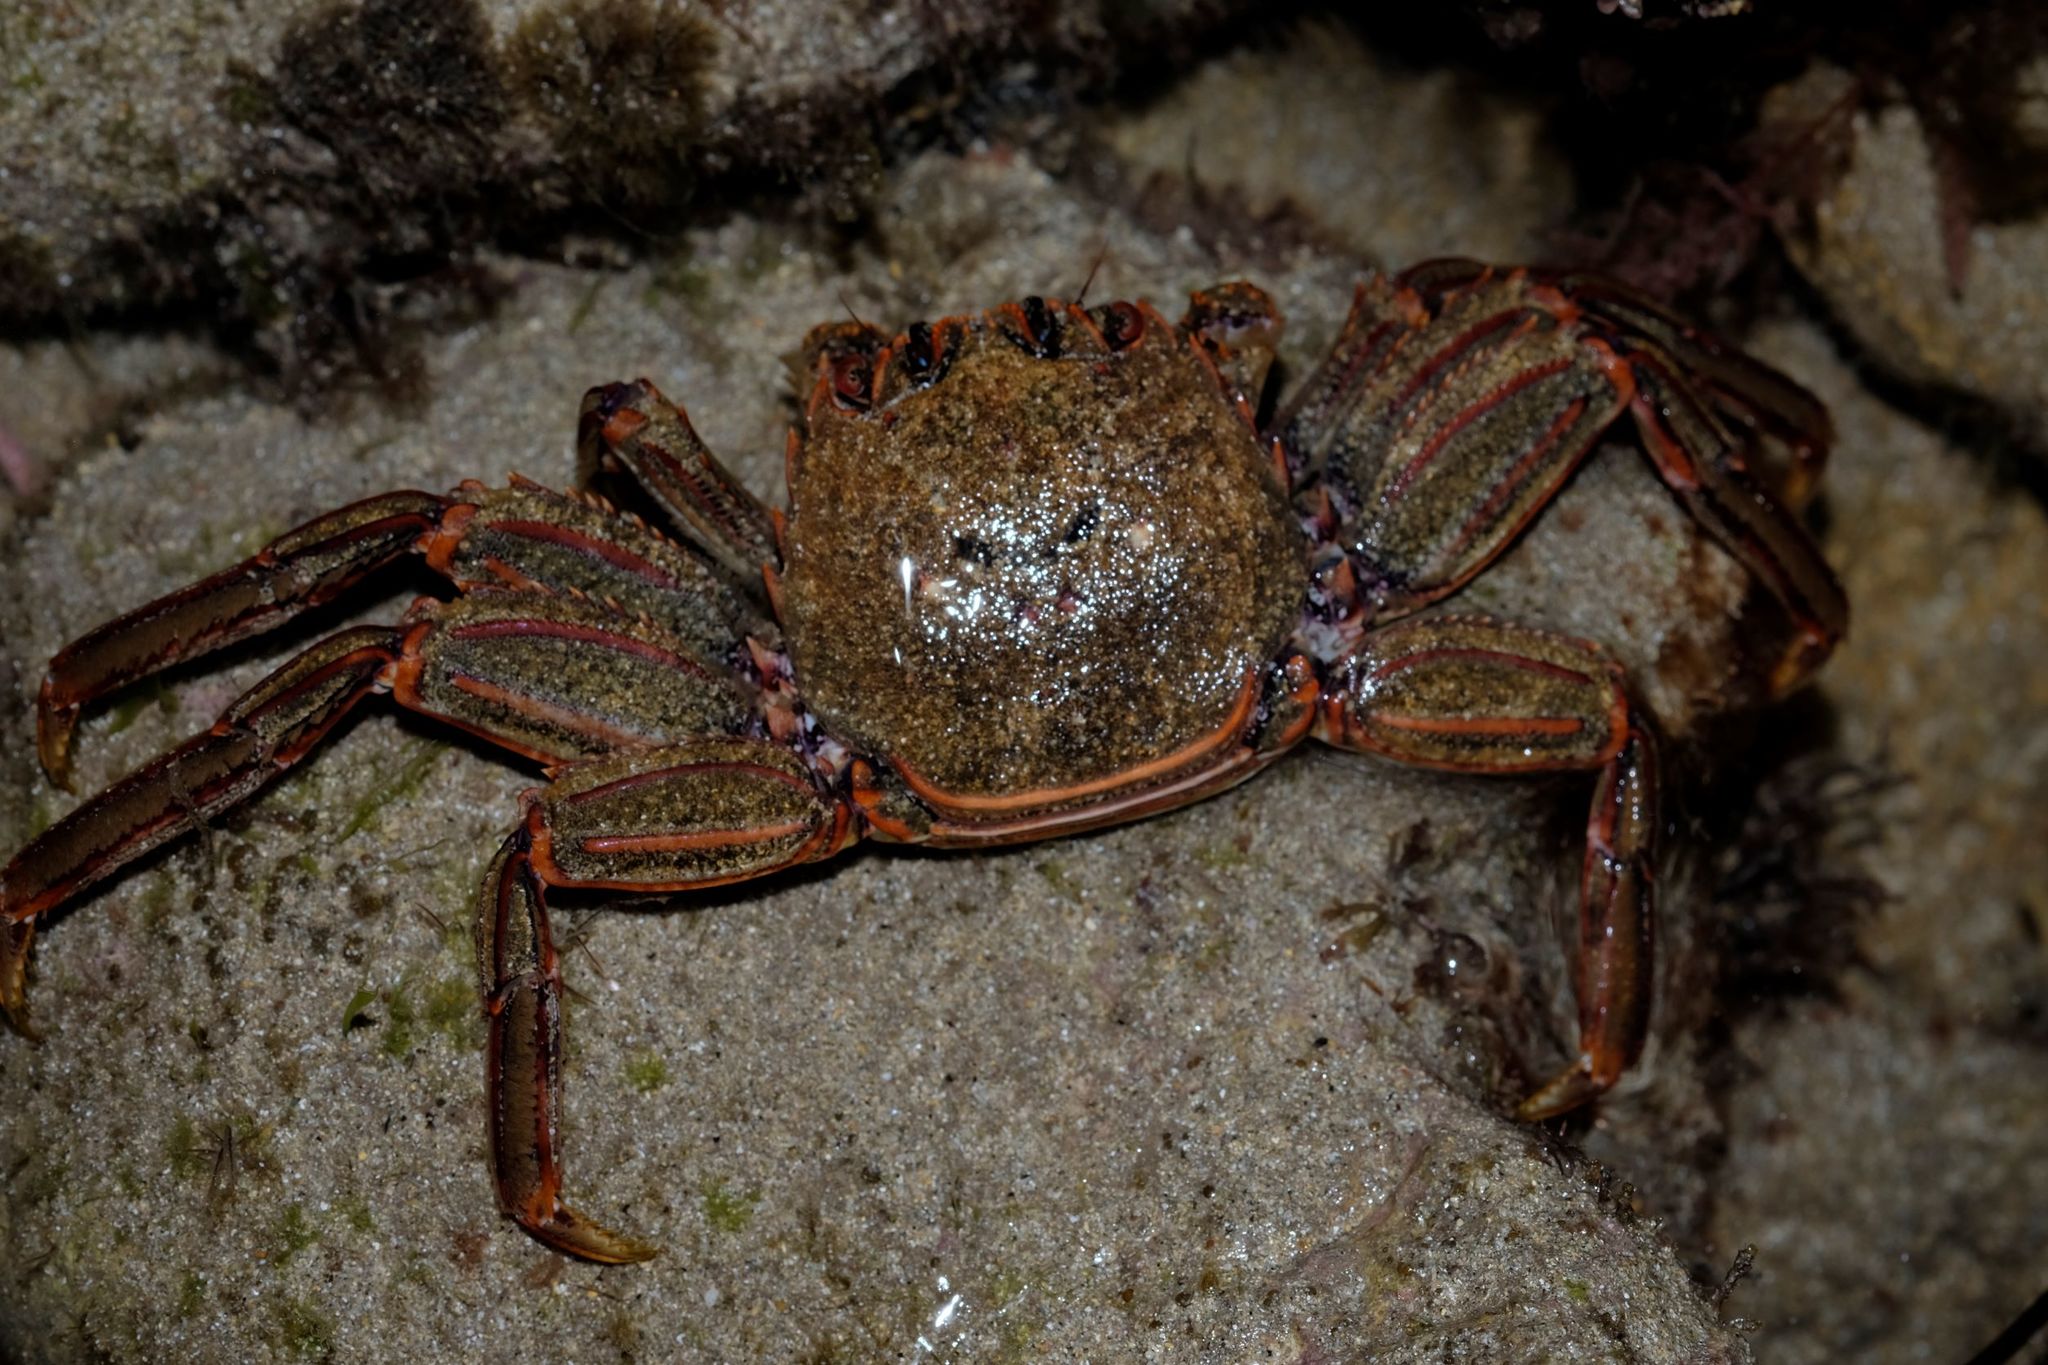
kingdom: Animalia
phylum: Arthropoda
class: Malacostraca
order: Decapoda
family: Plagusiidae
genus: Guinusia
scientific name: Guinusia chabrus
